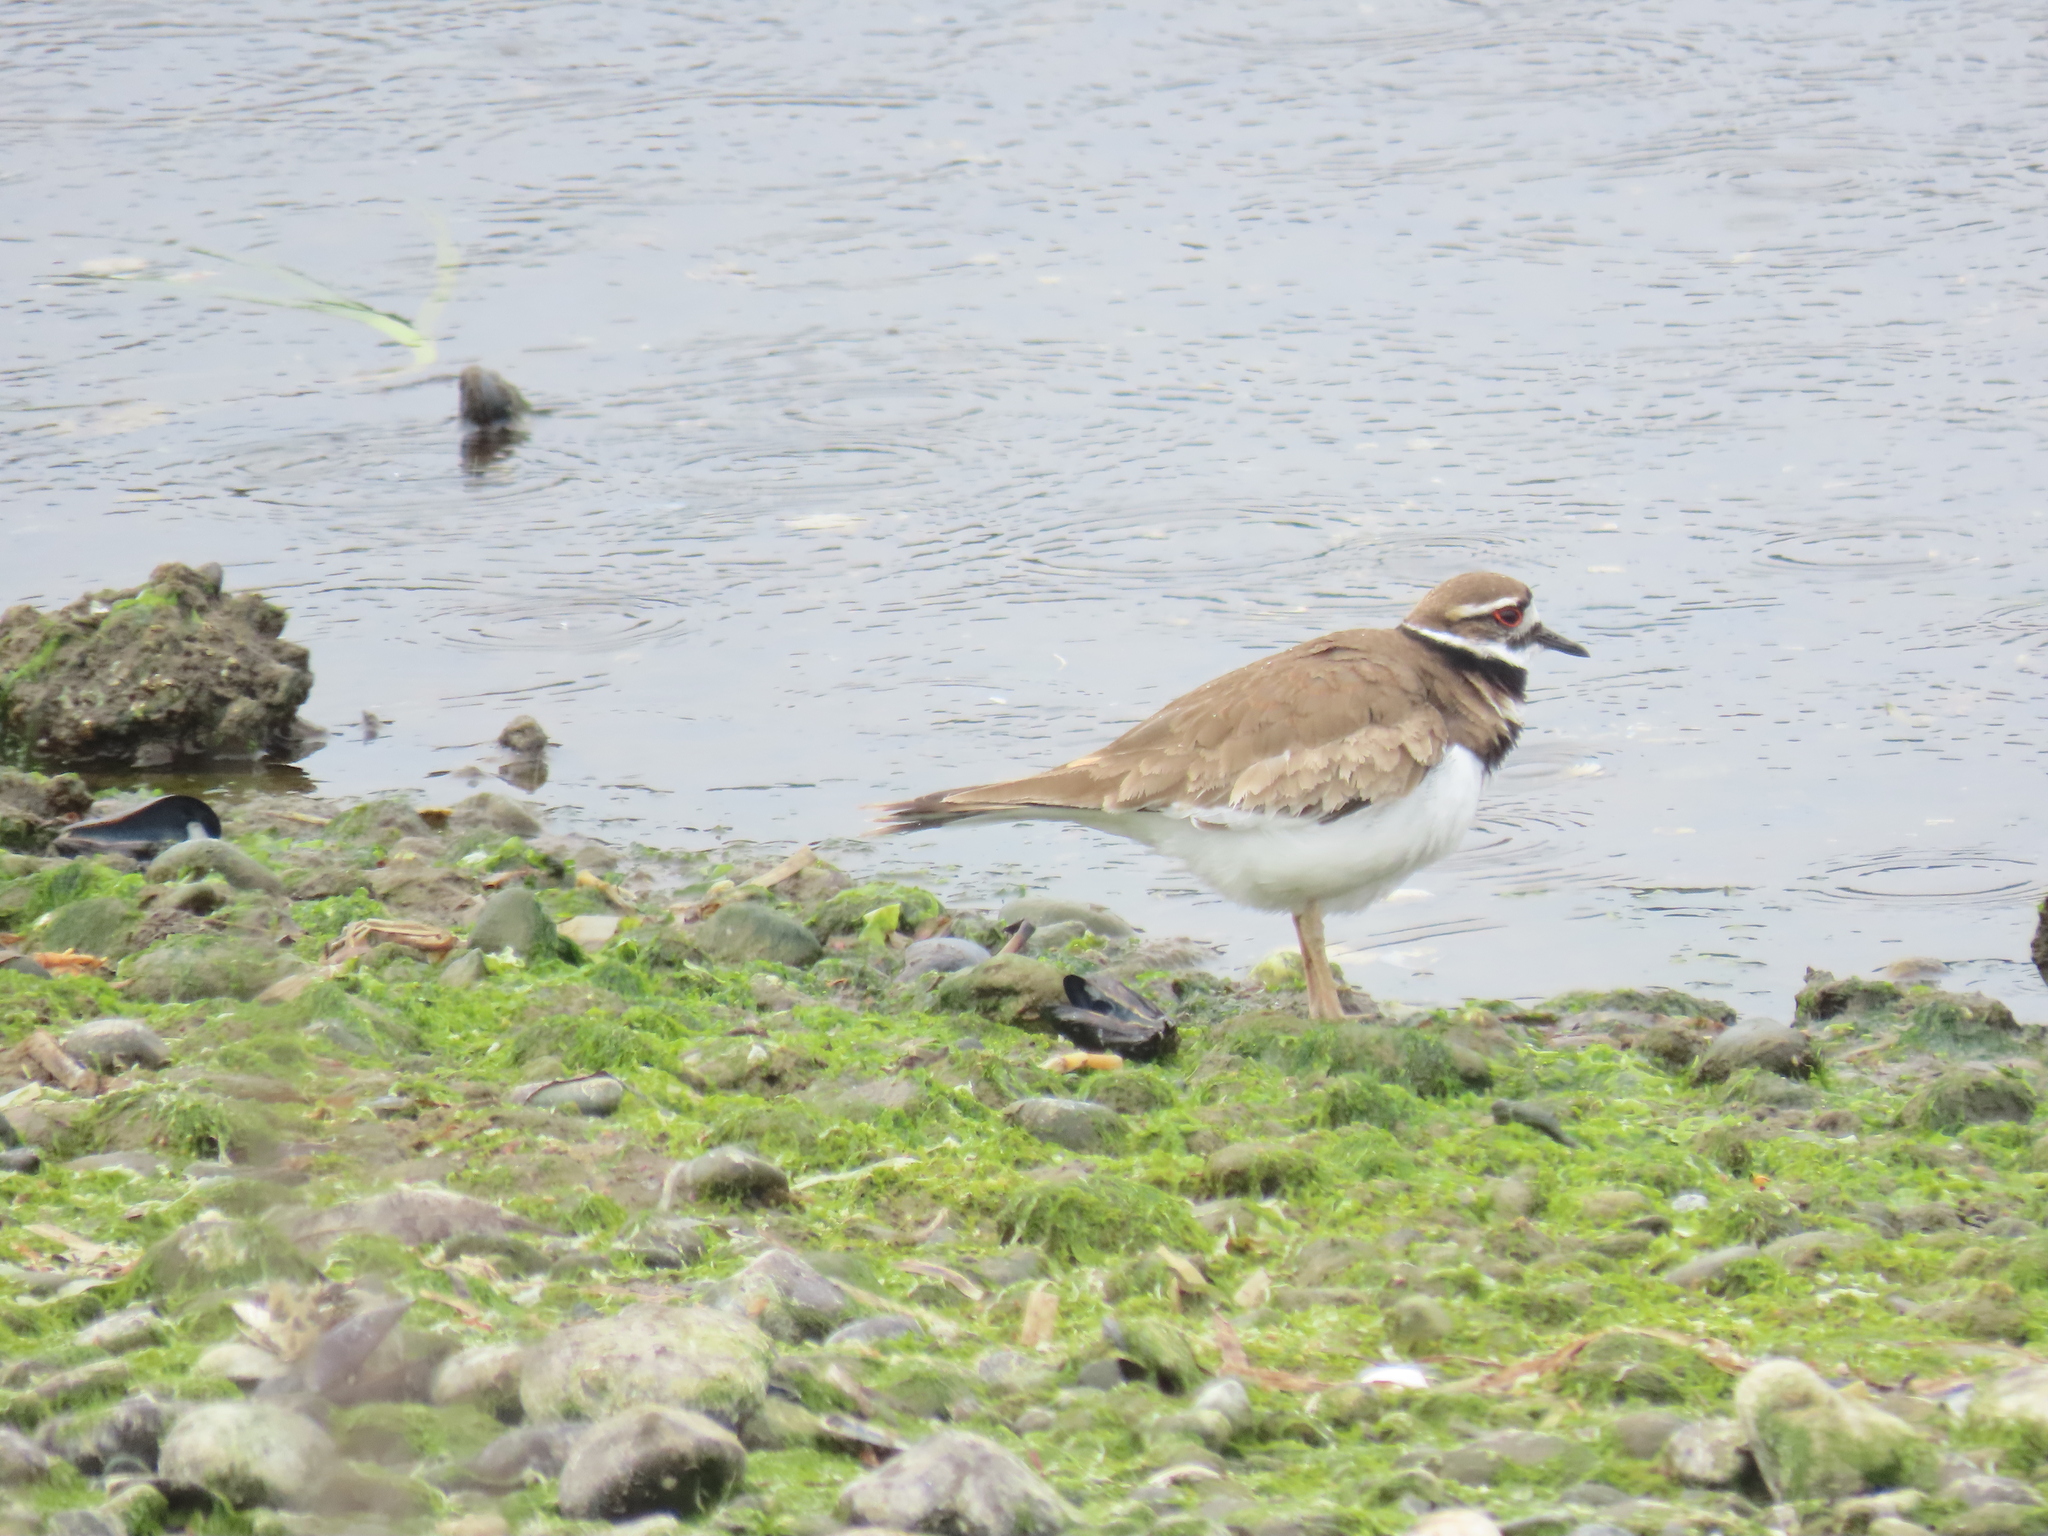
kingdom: Animalia
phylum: Chordata
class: Aves
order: Charadriiformes
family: Charadriidae
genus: Charadrius
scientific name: Charadrius vociferus
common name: Killdeer
